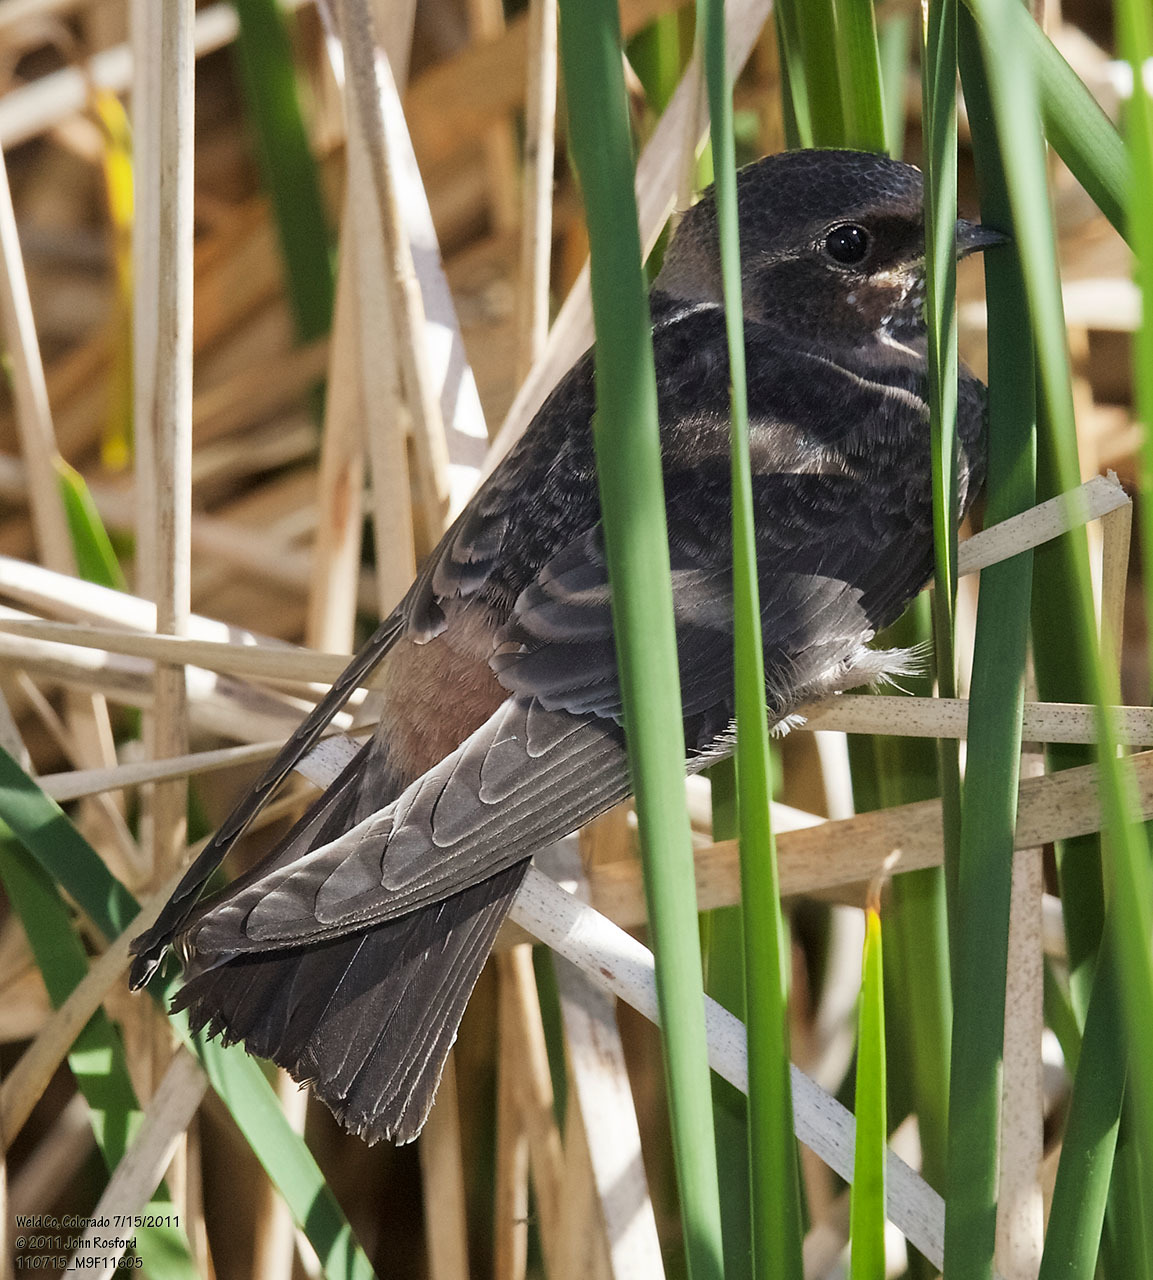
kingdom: Animalia
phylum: Chordata
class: Aves
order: Passeriformes
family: Hirundinidae
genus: Petrochelidon
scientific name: Petrochelidon pyrrhonota
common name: American cliff swallow
